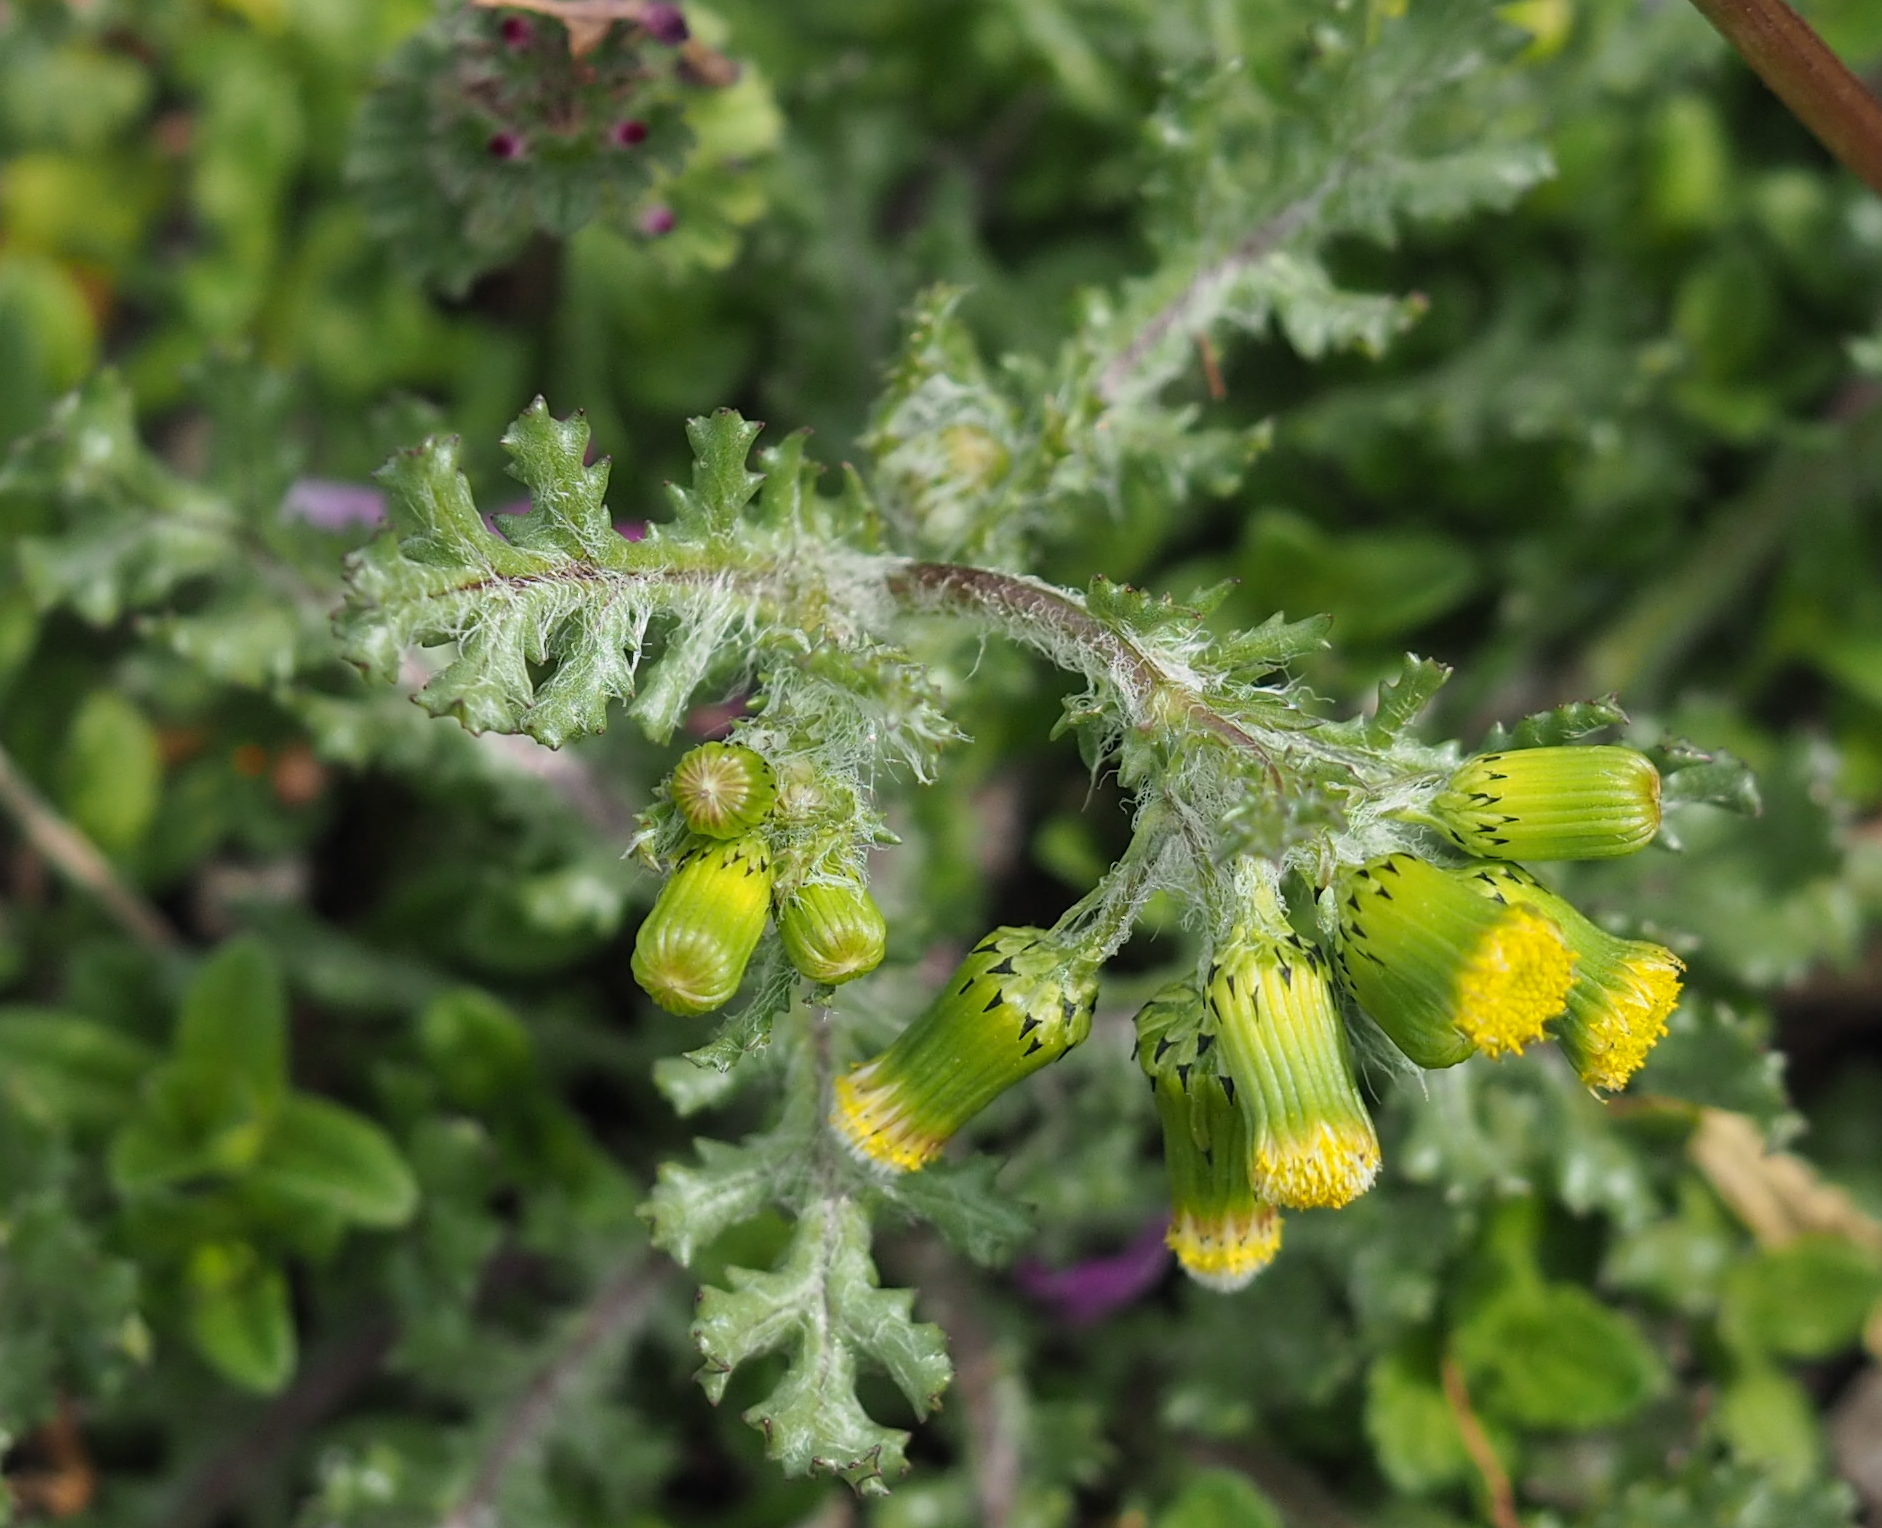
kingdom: Plantae
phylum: Tracheophyta
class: Magnoliopsida
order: Asterales
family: Asteraceae
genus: Senecio
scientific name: Senecio vulgaris
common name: Old-man-in-the-spring
